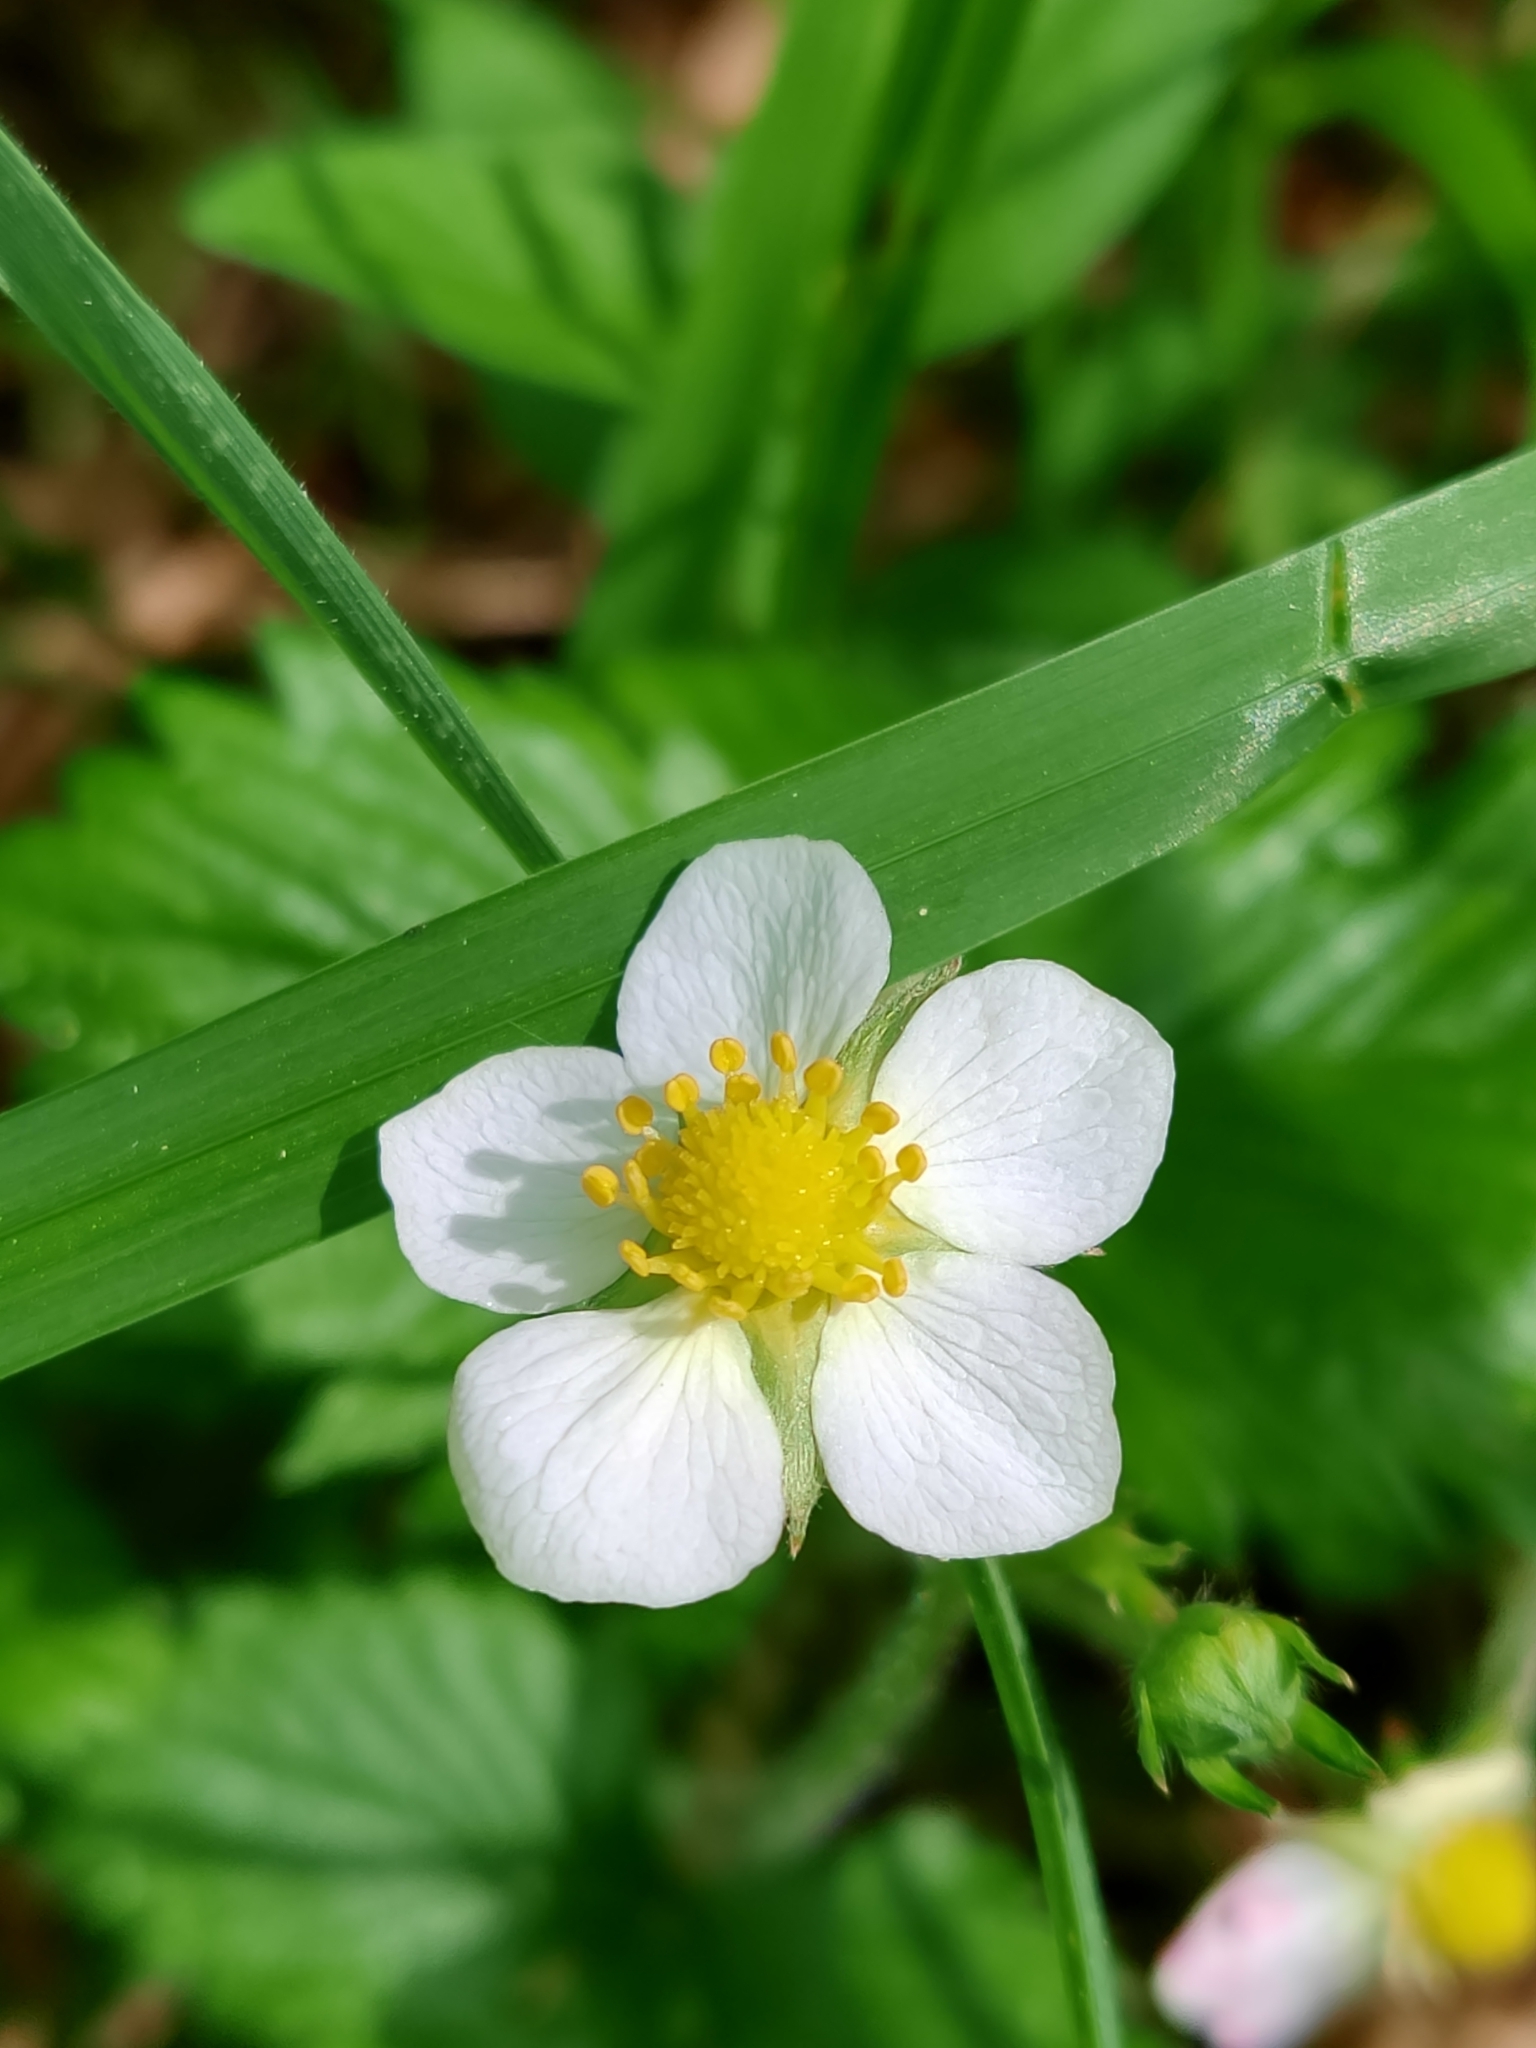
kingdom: Plantae
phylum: Tracheophyta
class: Magnoliopsida
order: Rosales
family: Rosaceae
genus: Fragaria
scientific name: Fragaria vesca
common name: Wild strawberry
